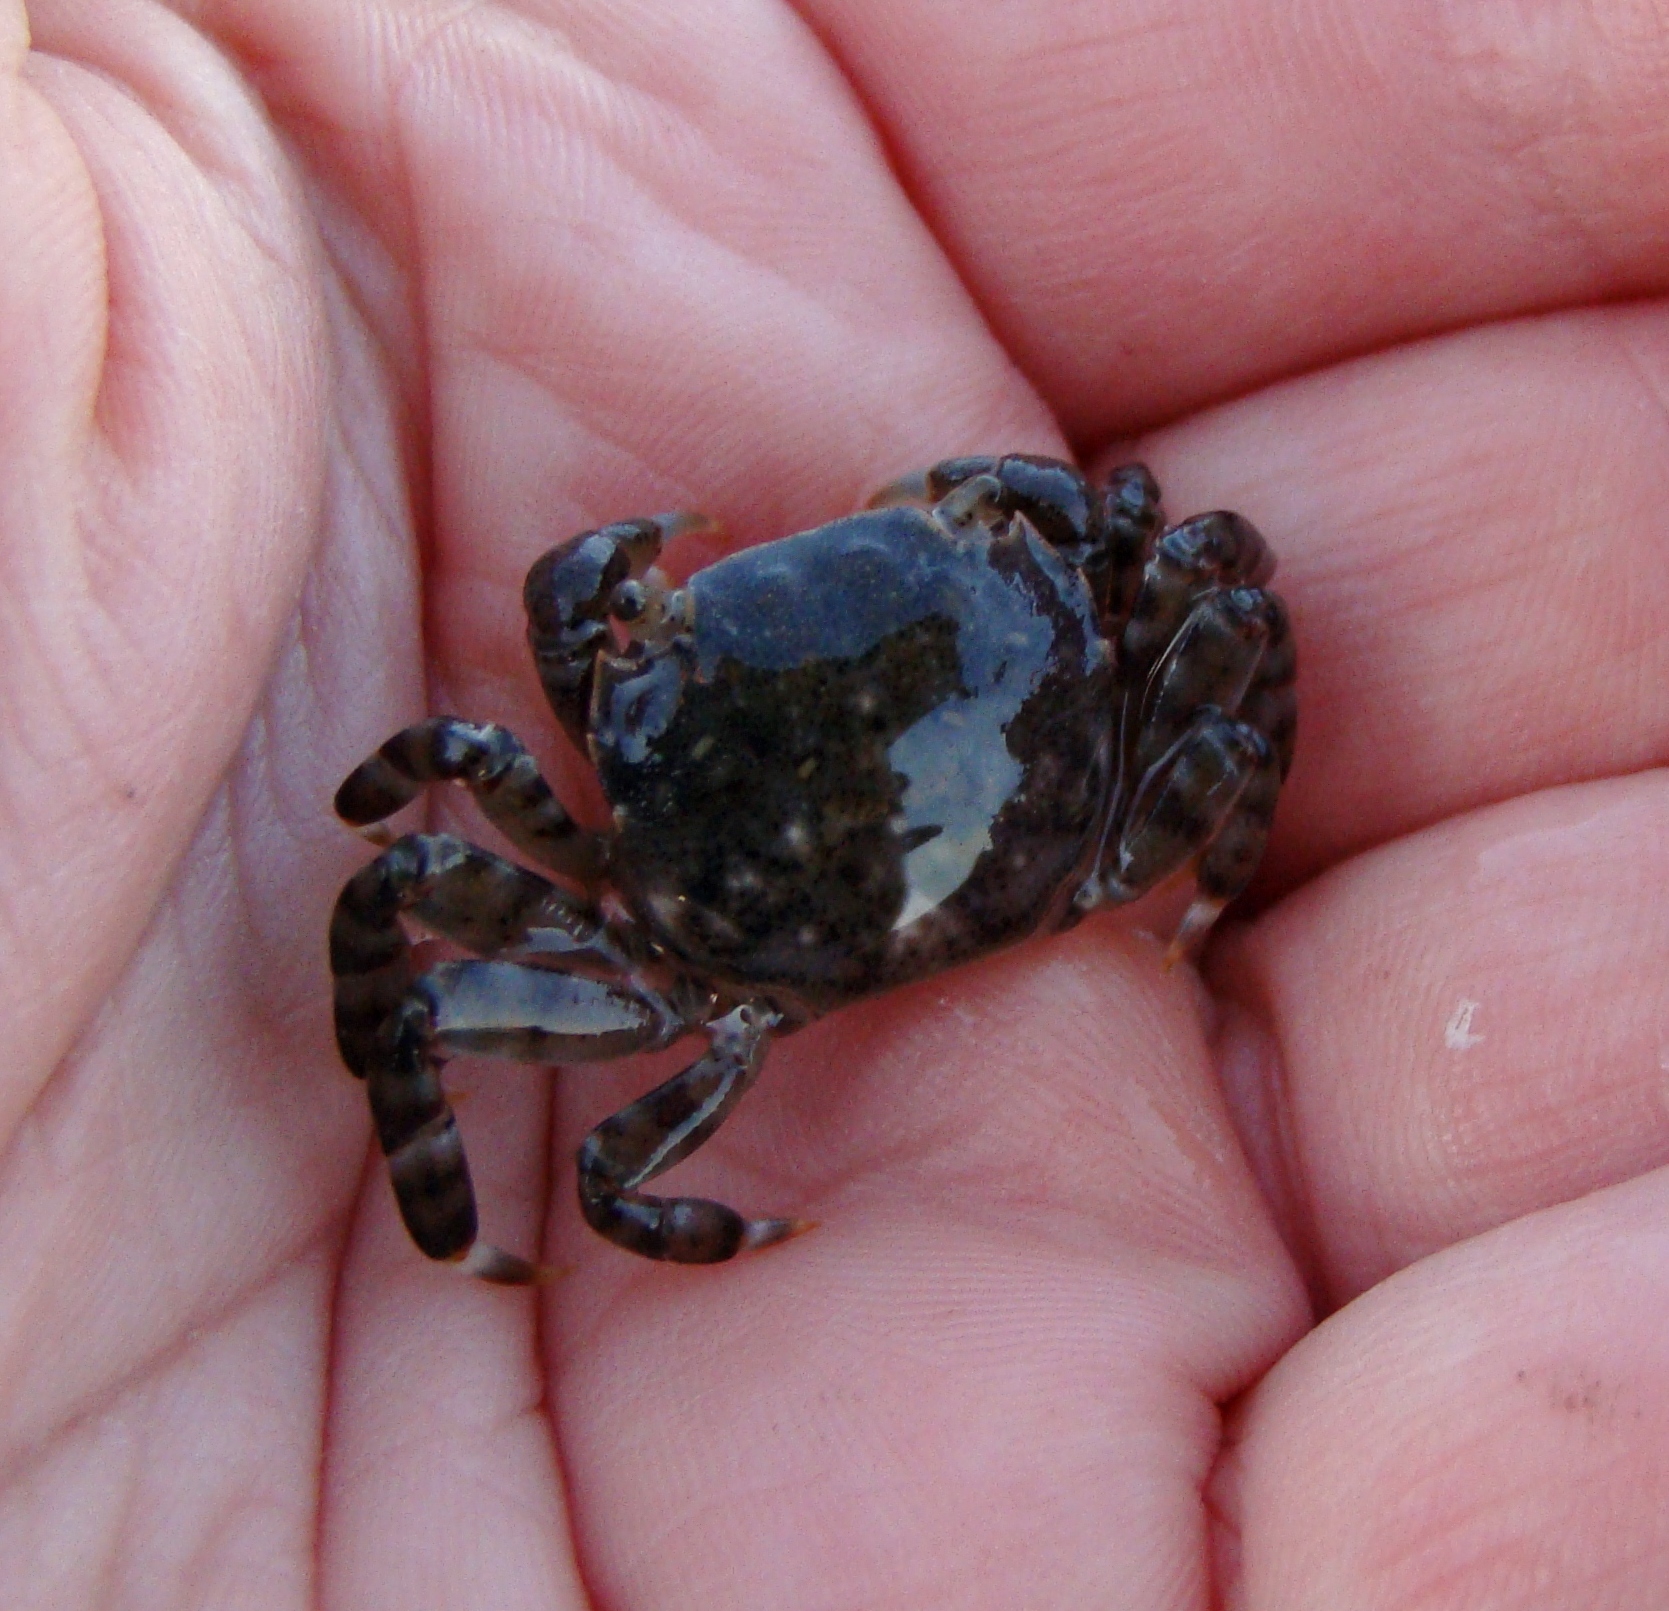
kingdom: Animalia
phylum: Arthropoda
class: Malacostraca
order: Decapoda
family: Varunidae
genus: Hemigrapsus
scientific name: Hemigrapsus sexdentatus
